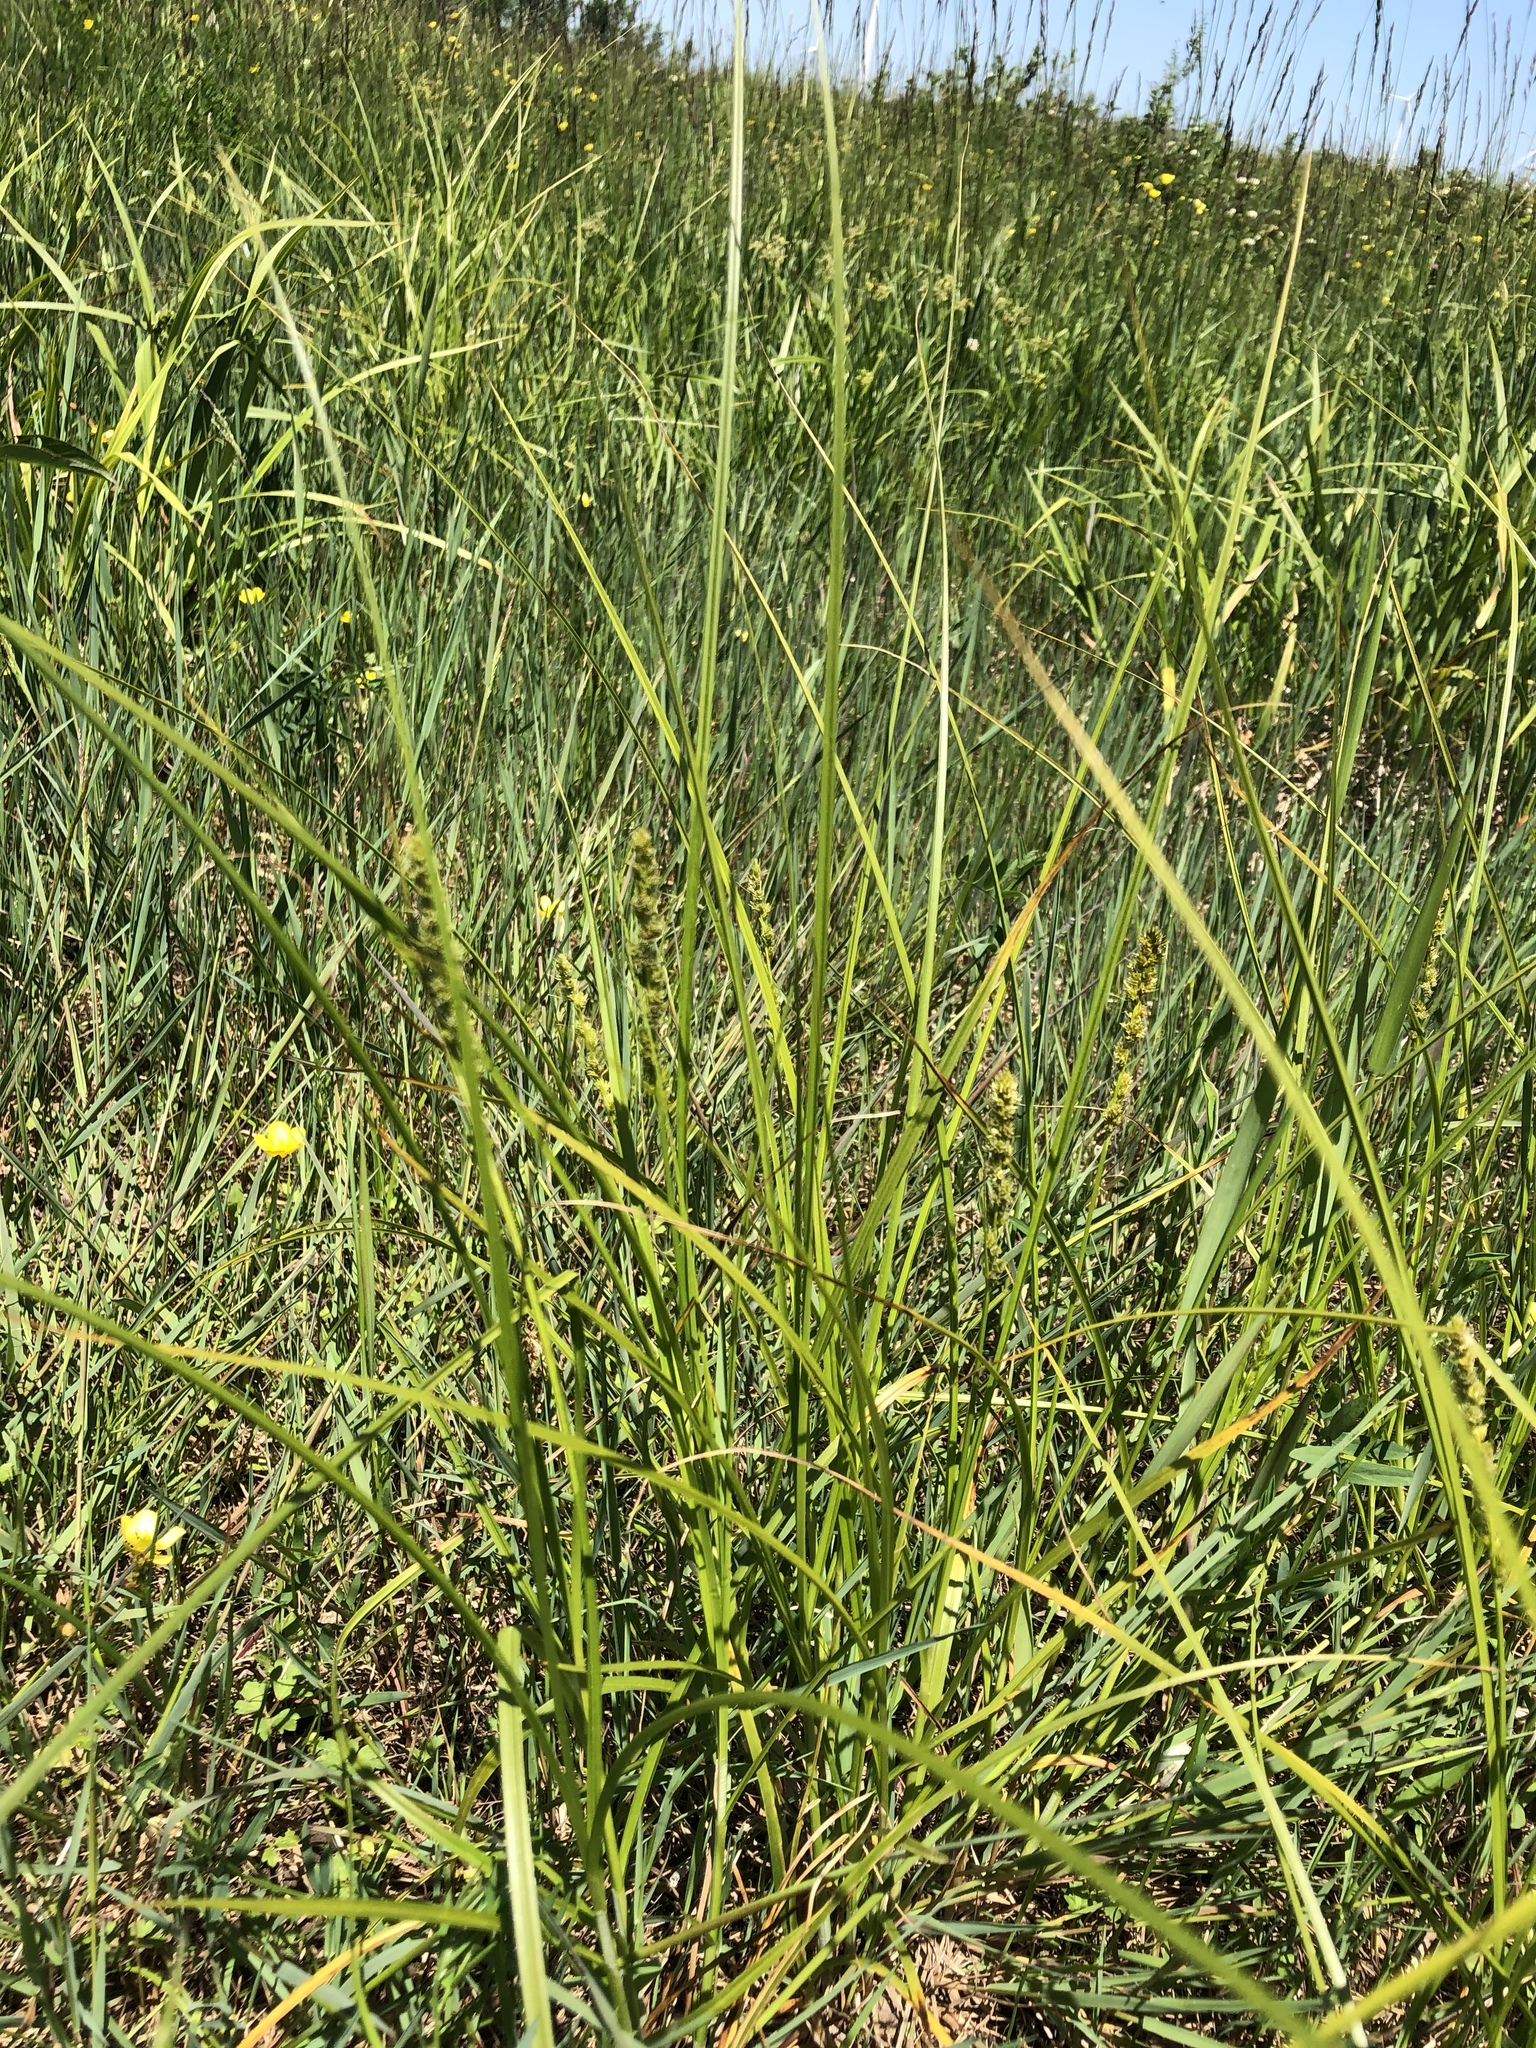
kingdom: Plantae
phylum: Tracheophyta
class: Liliopsida
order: Poales
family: Cyperaceae
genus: Carex
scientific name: Carex vulpinoidea
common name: American fox-sedge
